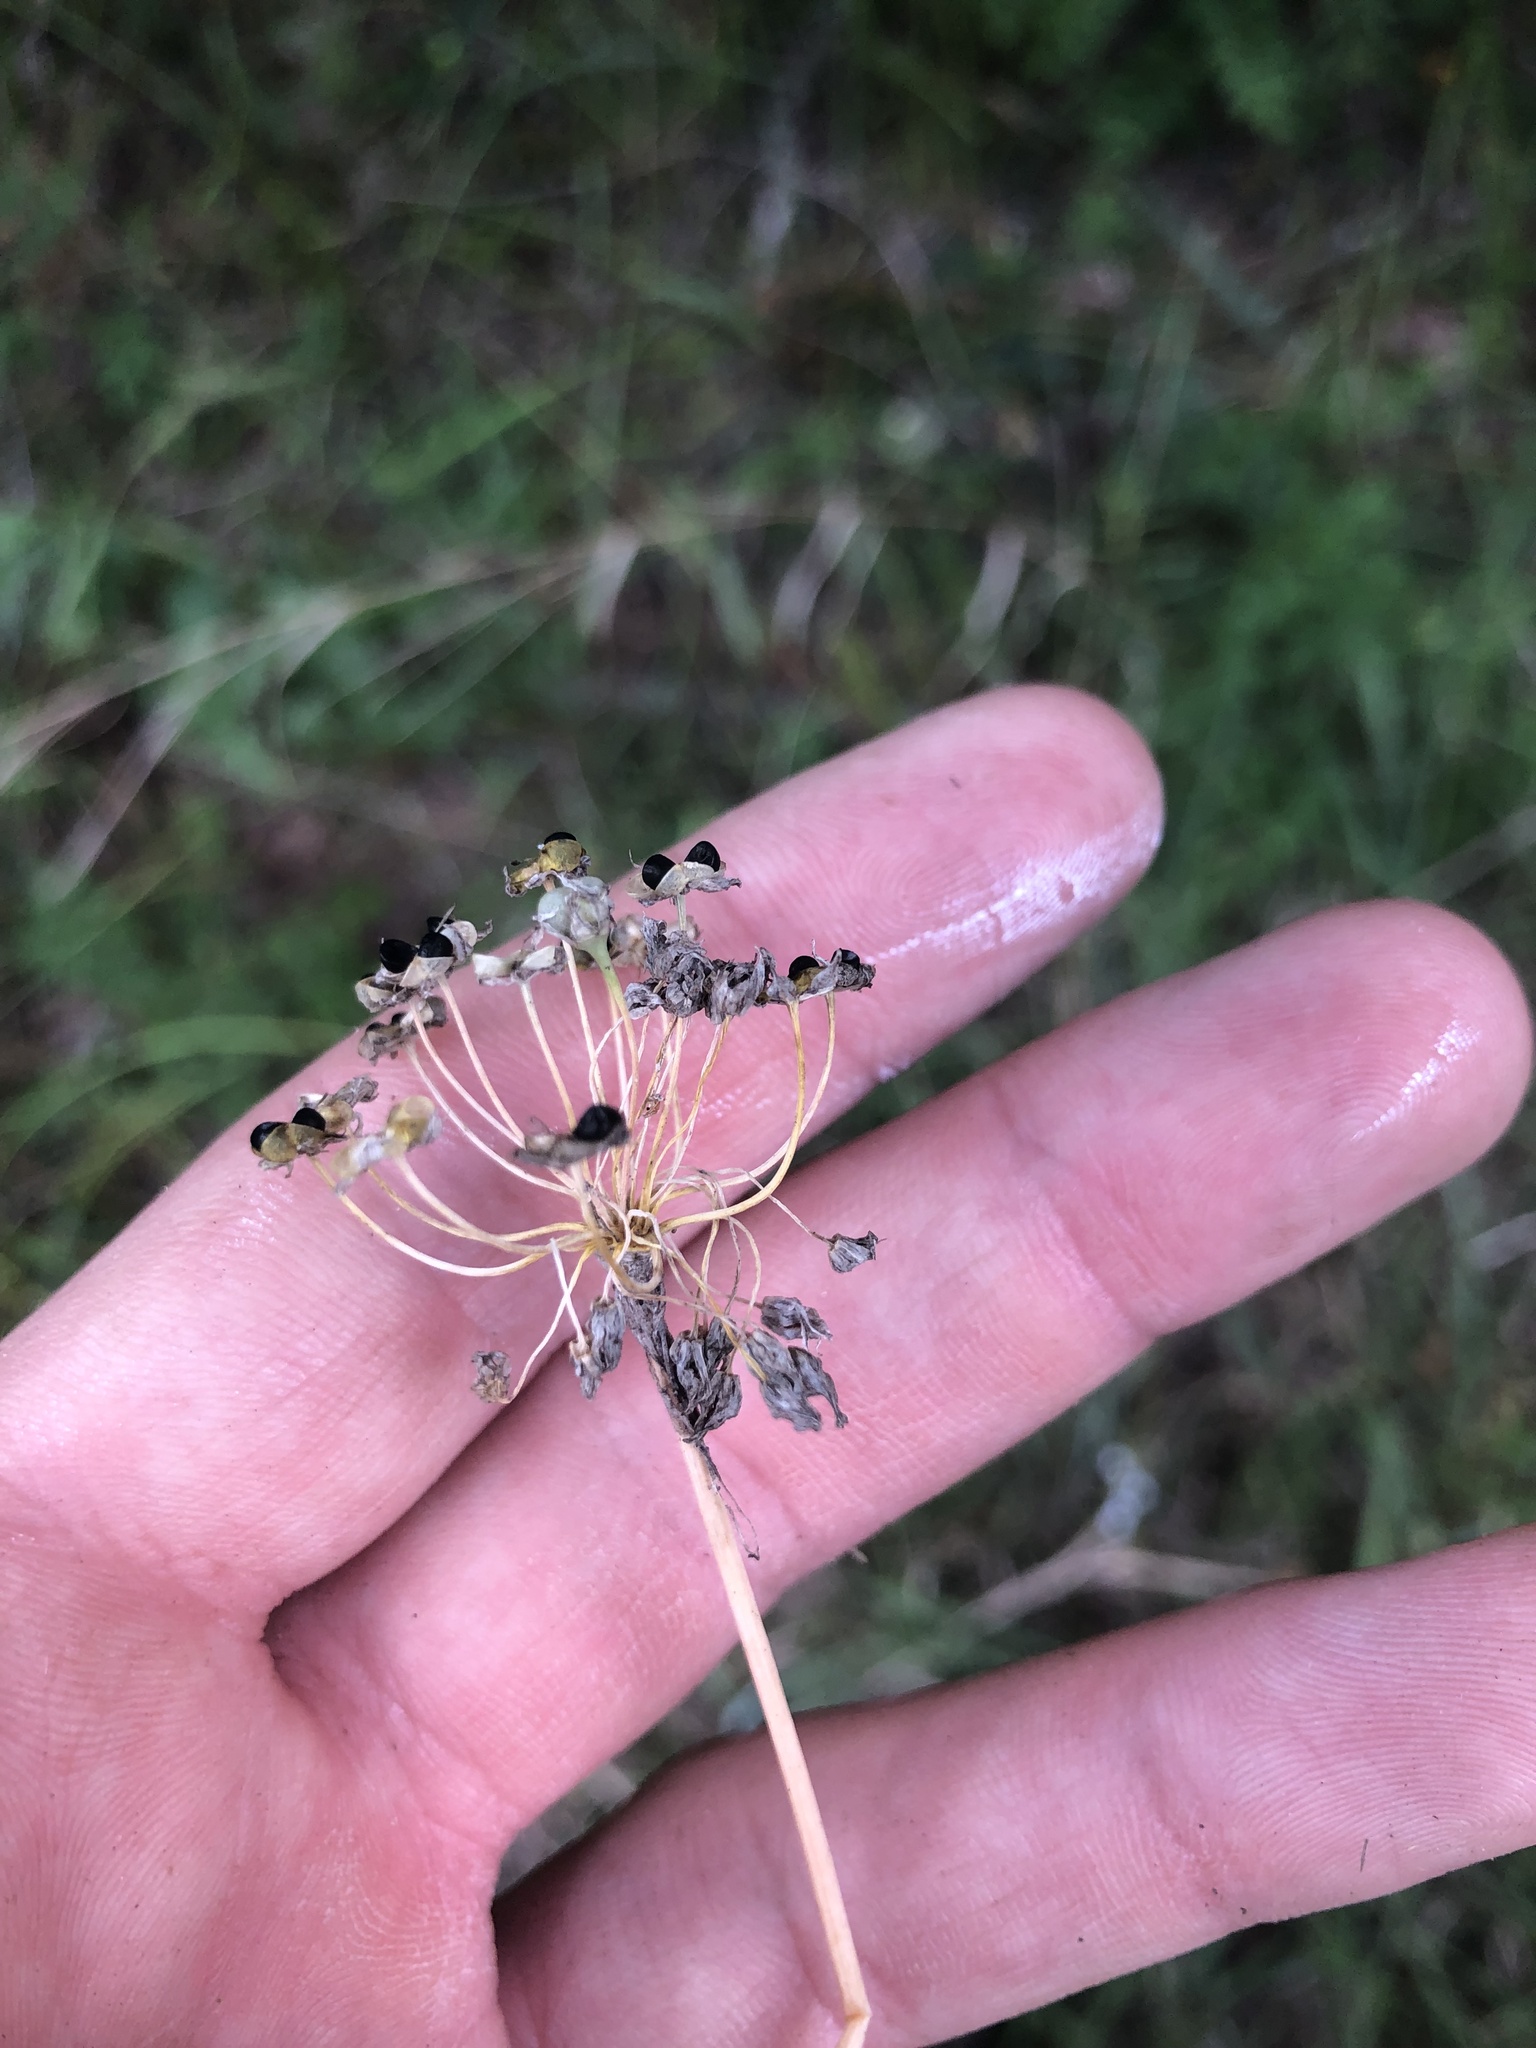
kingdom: Plantae
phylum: Tracheophyta
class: Liliopsida
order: Asparagales
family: Amaryllidaceae
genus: Allium
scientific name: Allium canadense
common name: Meadow garlic
